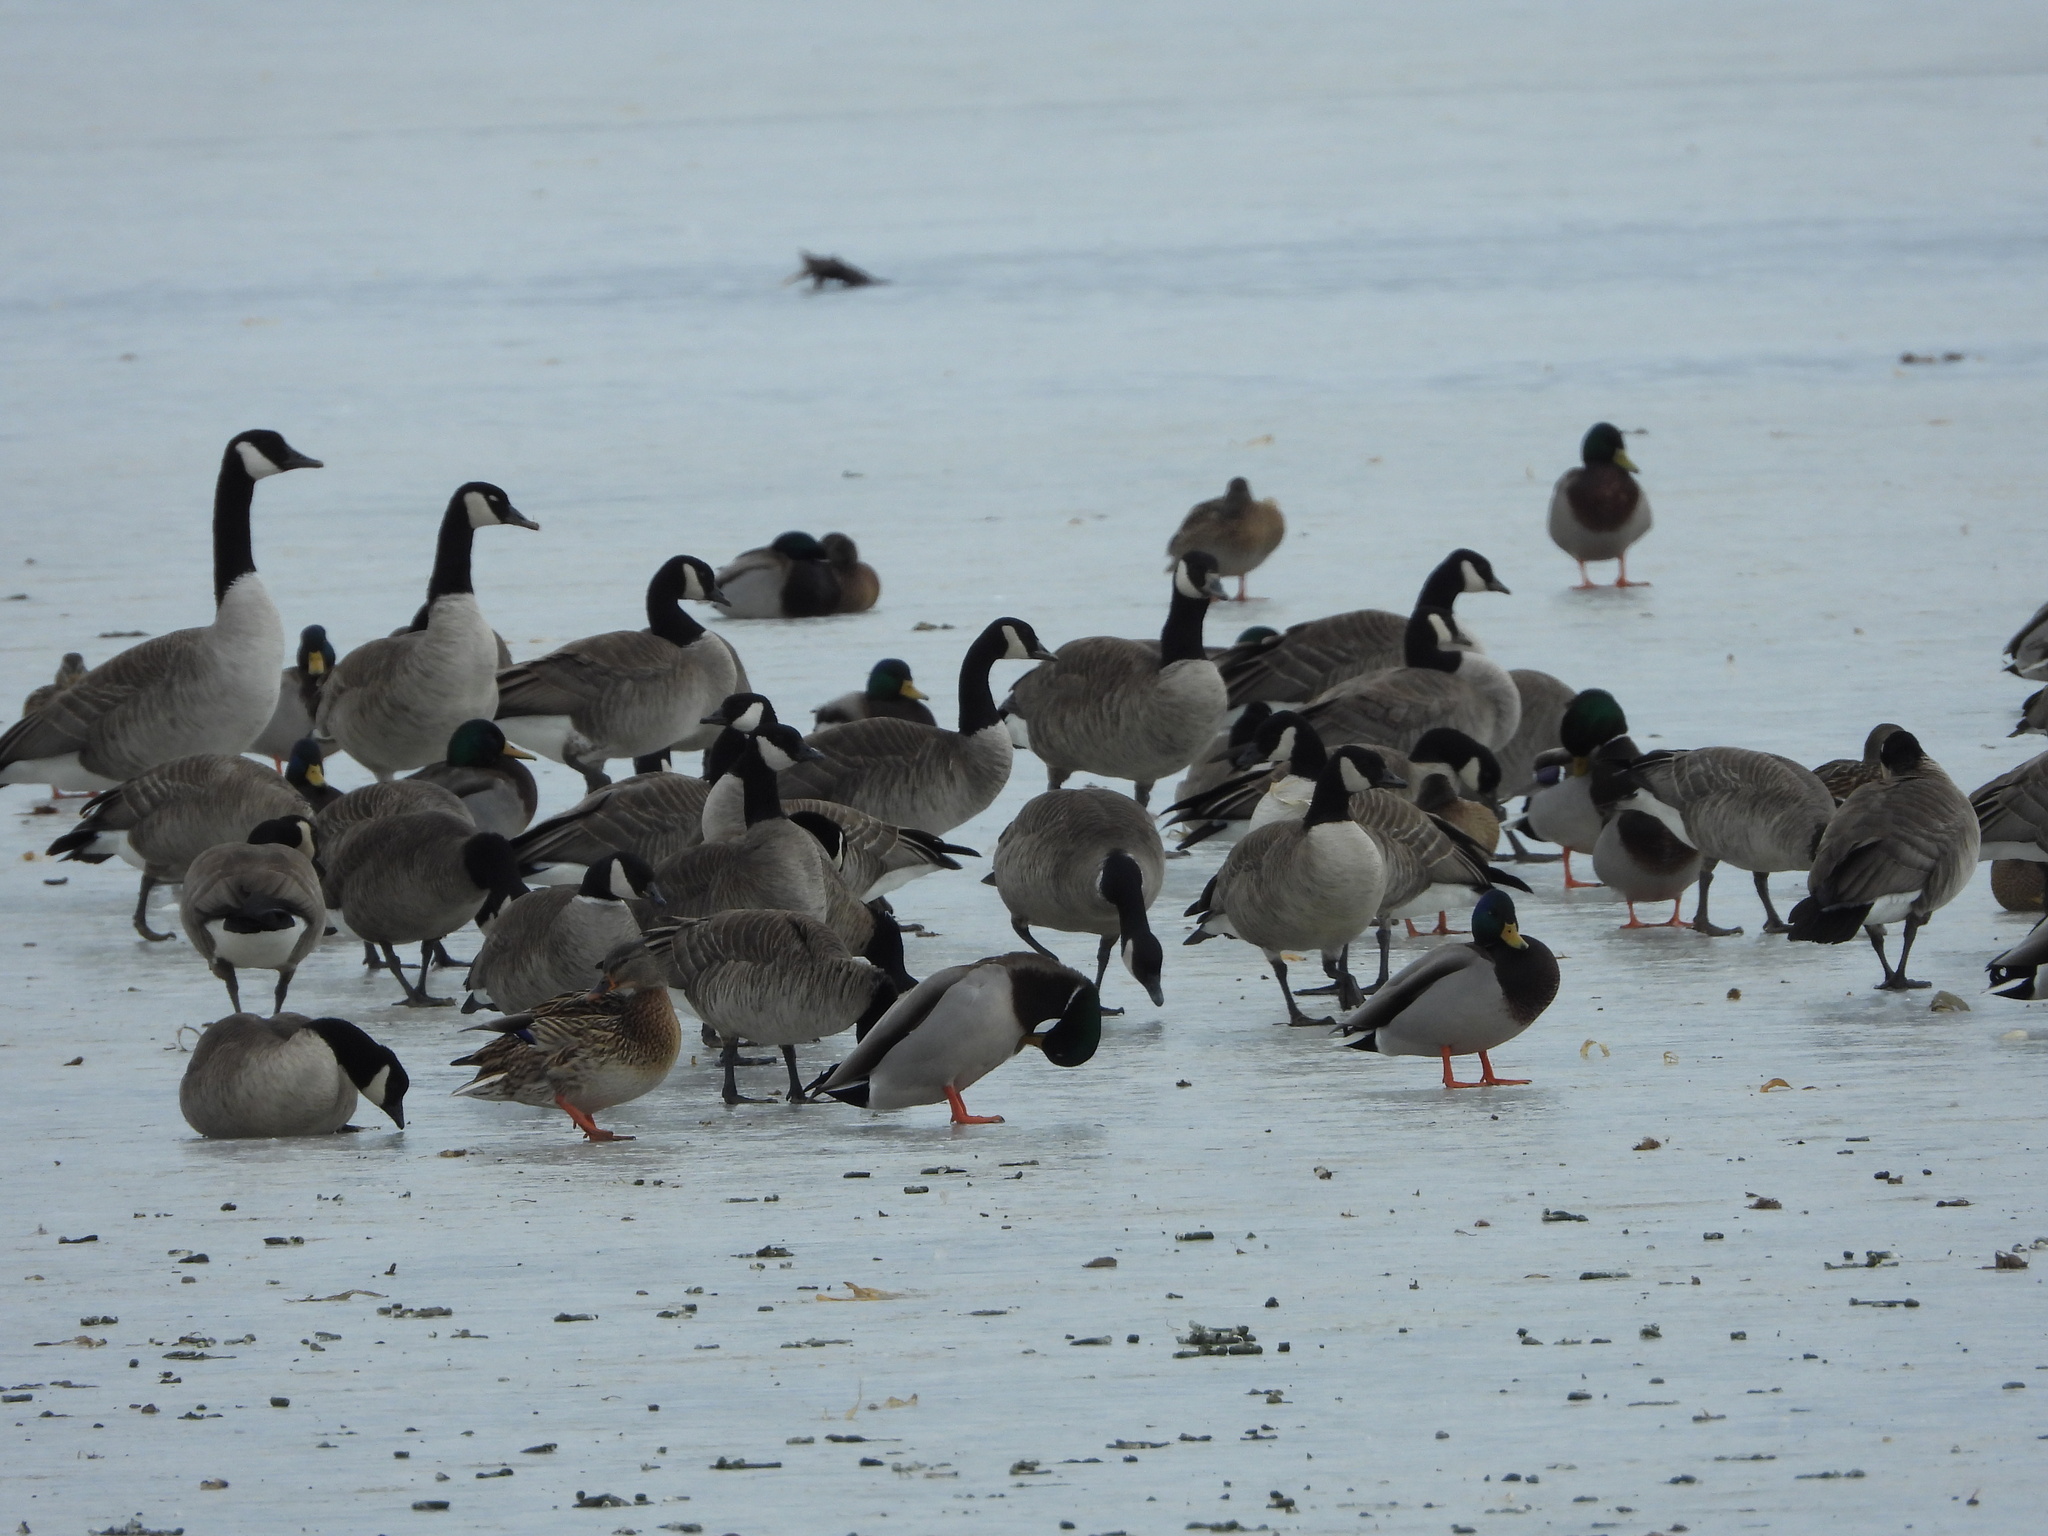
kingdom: Animalia
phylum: Chordata
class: Aves
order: Anseriformes
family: Anatidae
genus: Branta
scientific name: Branta hutchinsii
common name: Cackling goose
